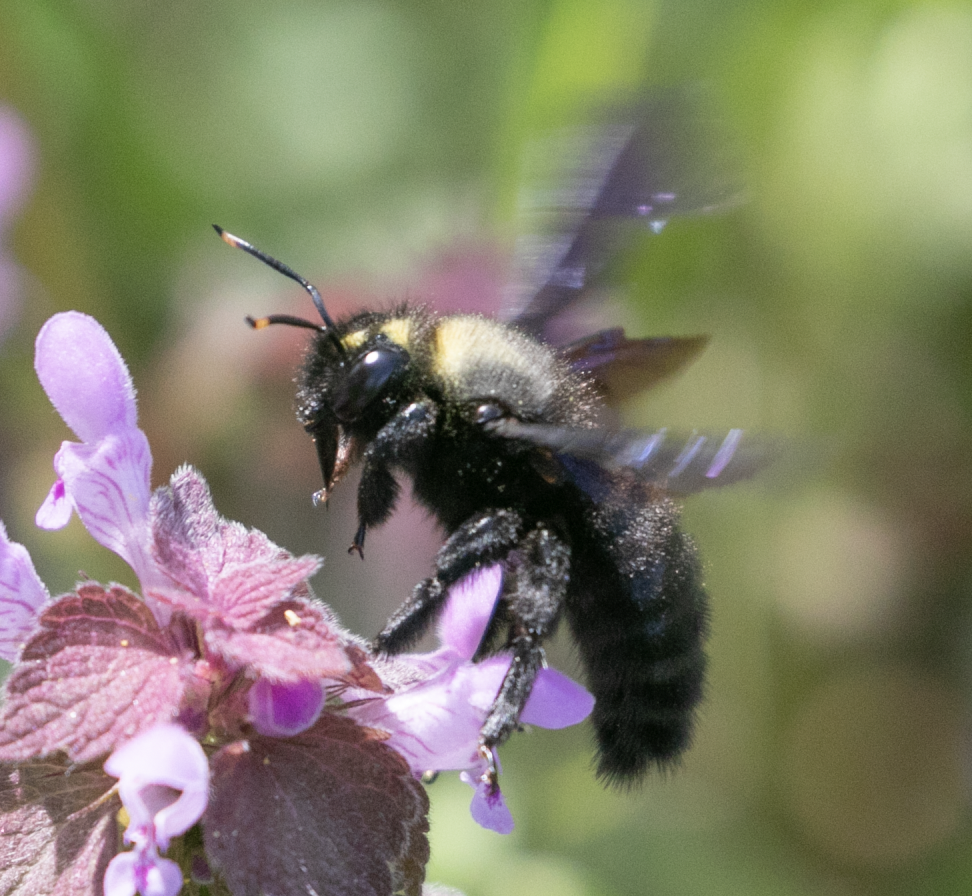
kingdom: Animalia
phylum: Arthropoda
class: Insecta
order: Hymenoptera
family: Apidae
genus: Xylocopa
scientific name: Xylocopa violacea
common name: Violet carpenter bee
